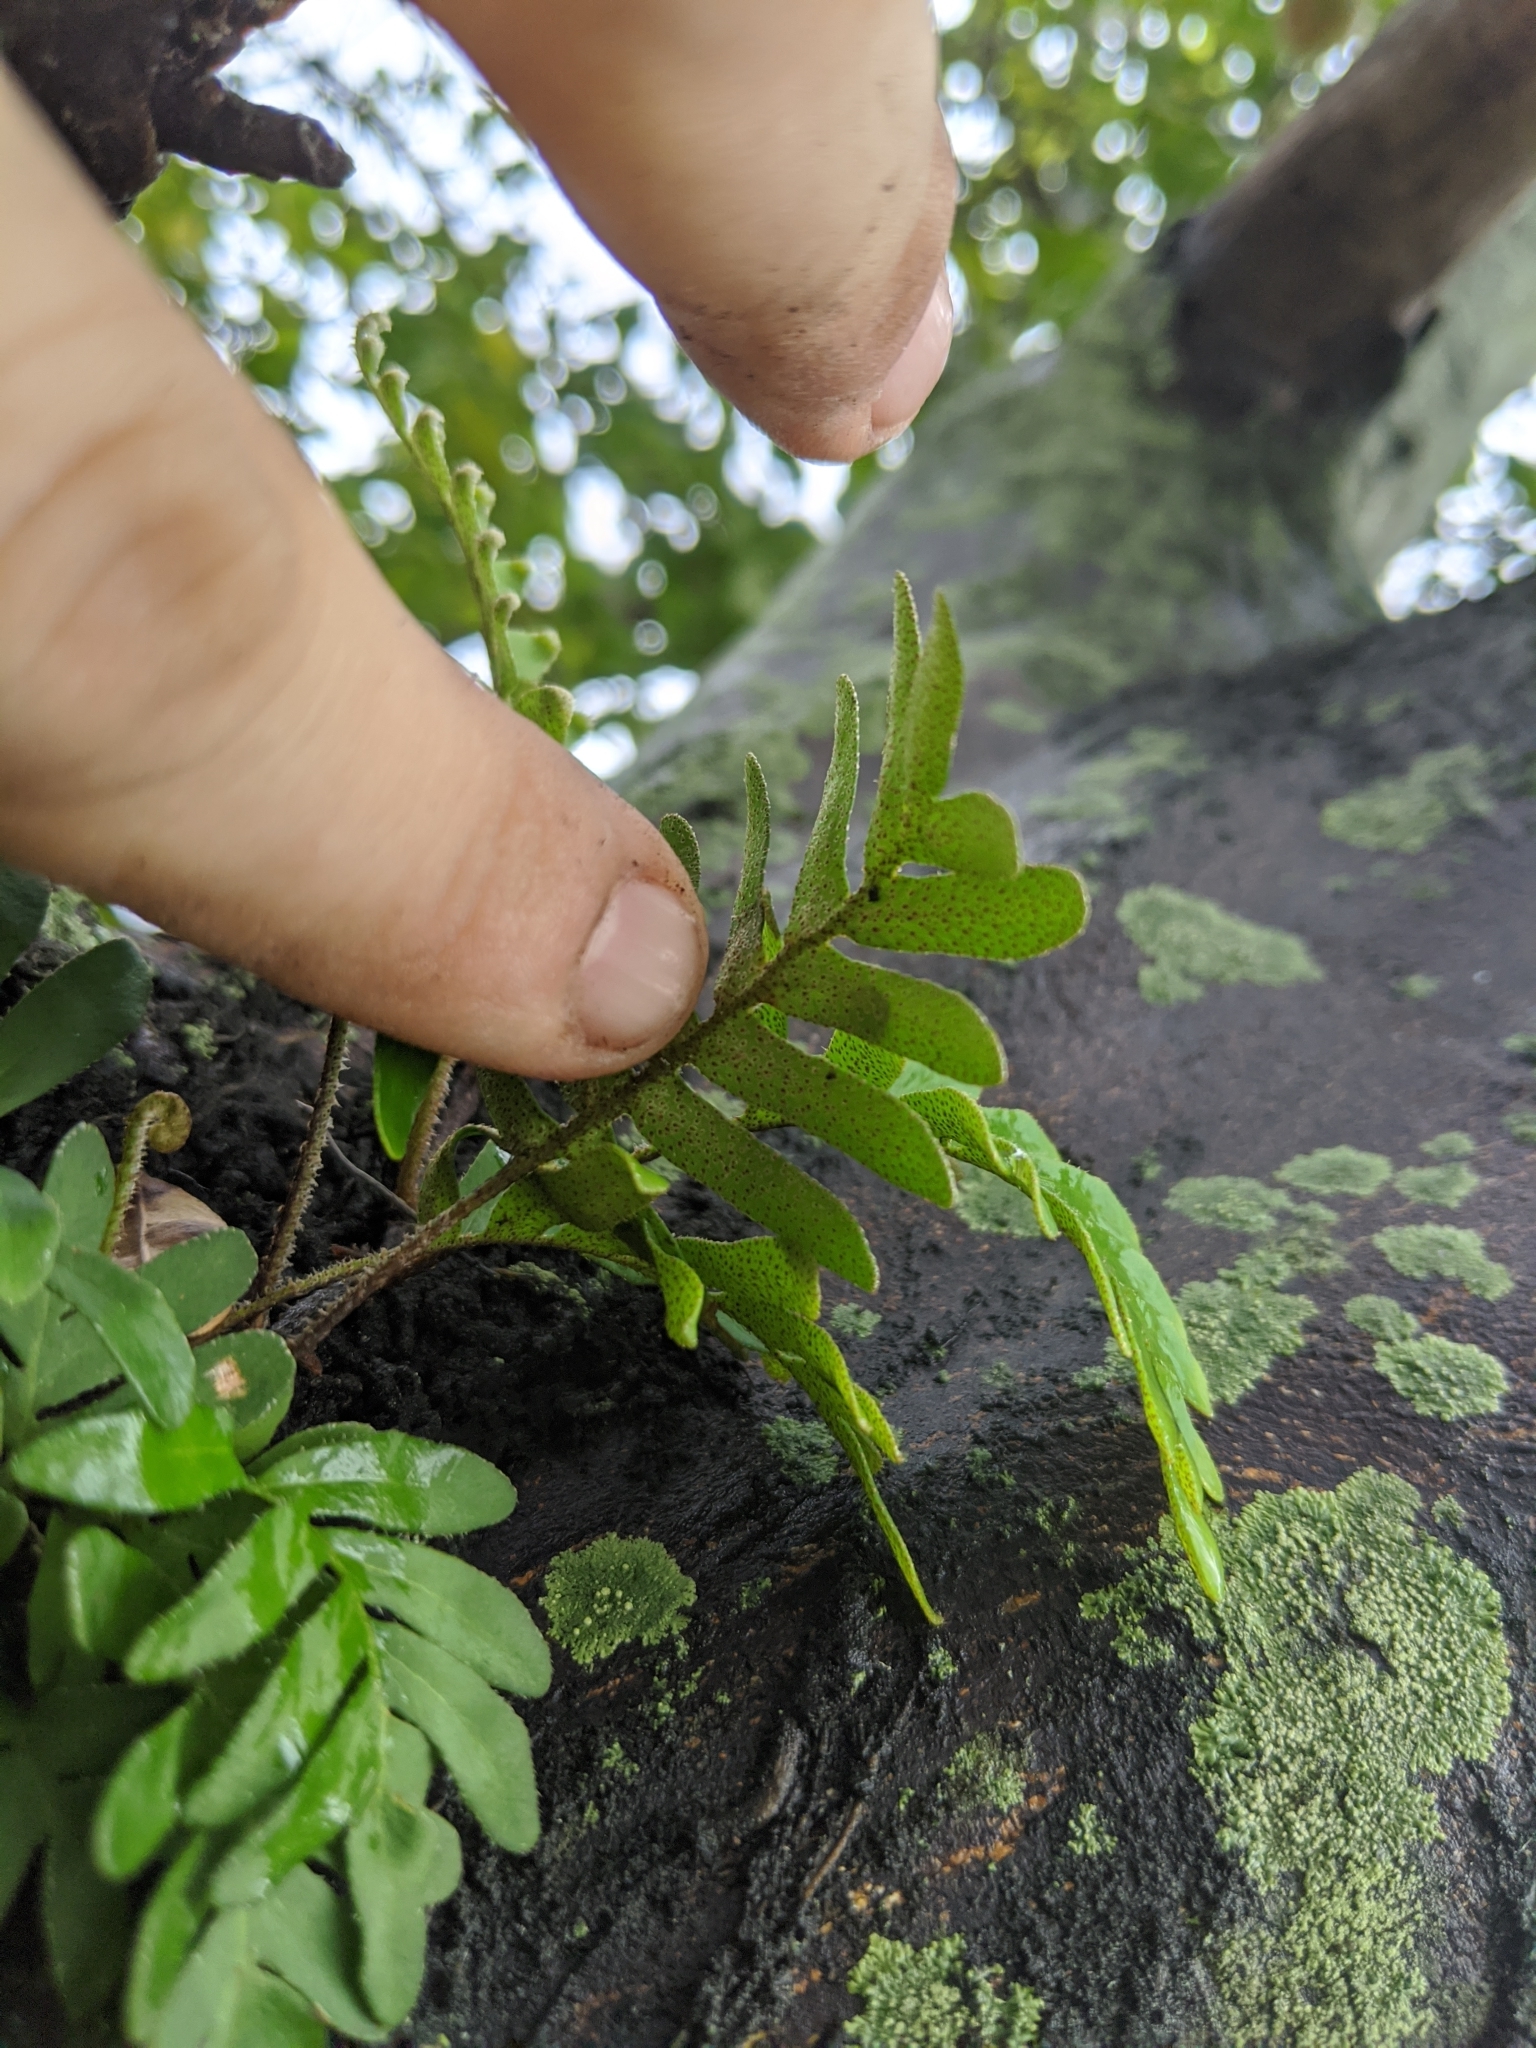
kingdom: Plantae
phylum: Tracheophyta
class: Polypodiopsida
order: Polypodiales
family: Polypodiaceae
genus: Pleopeltis
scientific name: Pleopeltis michauxiana
